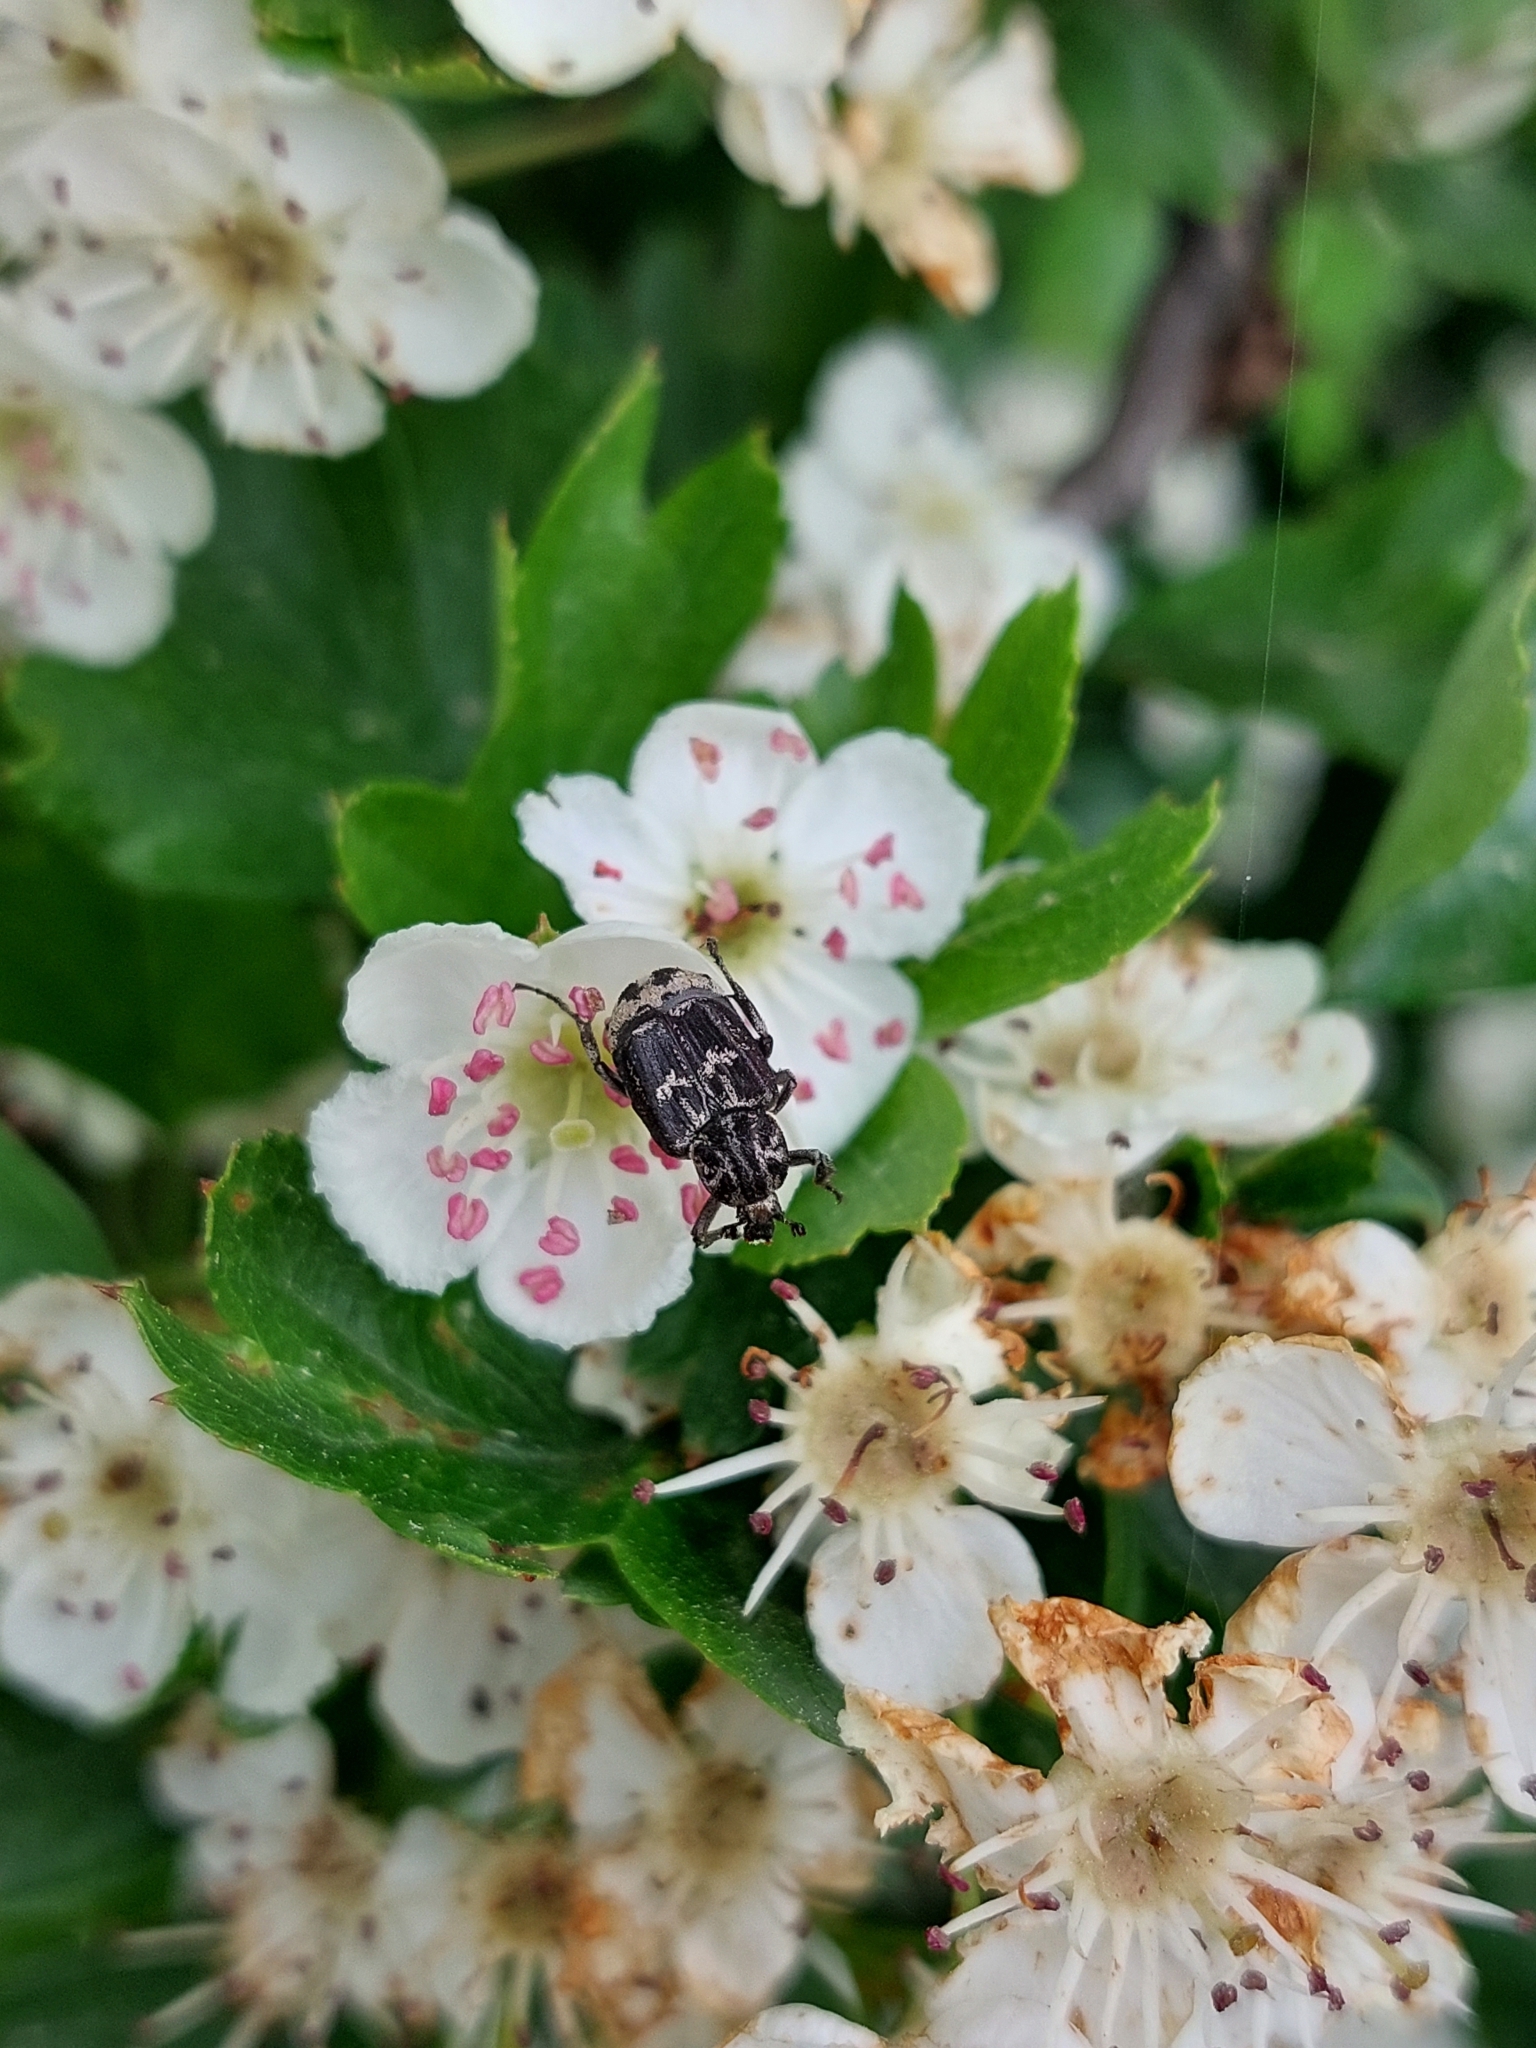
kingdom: Animalia
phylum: Arthropoda
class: Insecta
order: Coleoptera
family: Scarabaeidae
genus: Valgus
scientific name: Valgus hemipterus
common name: Bug flower chafer
